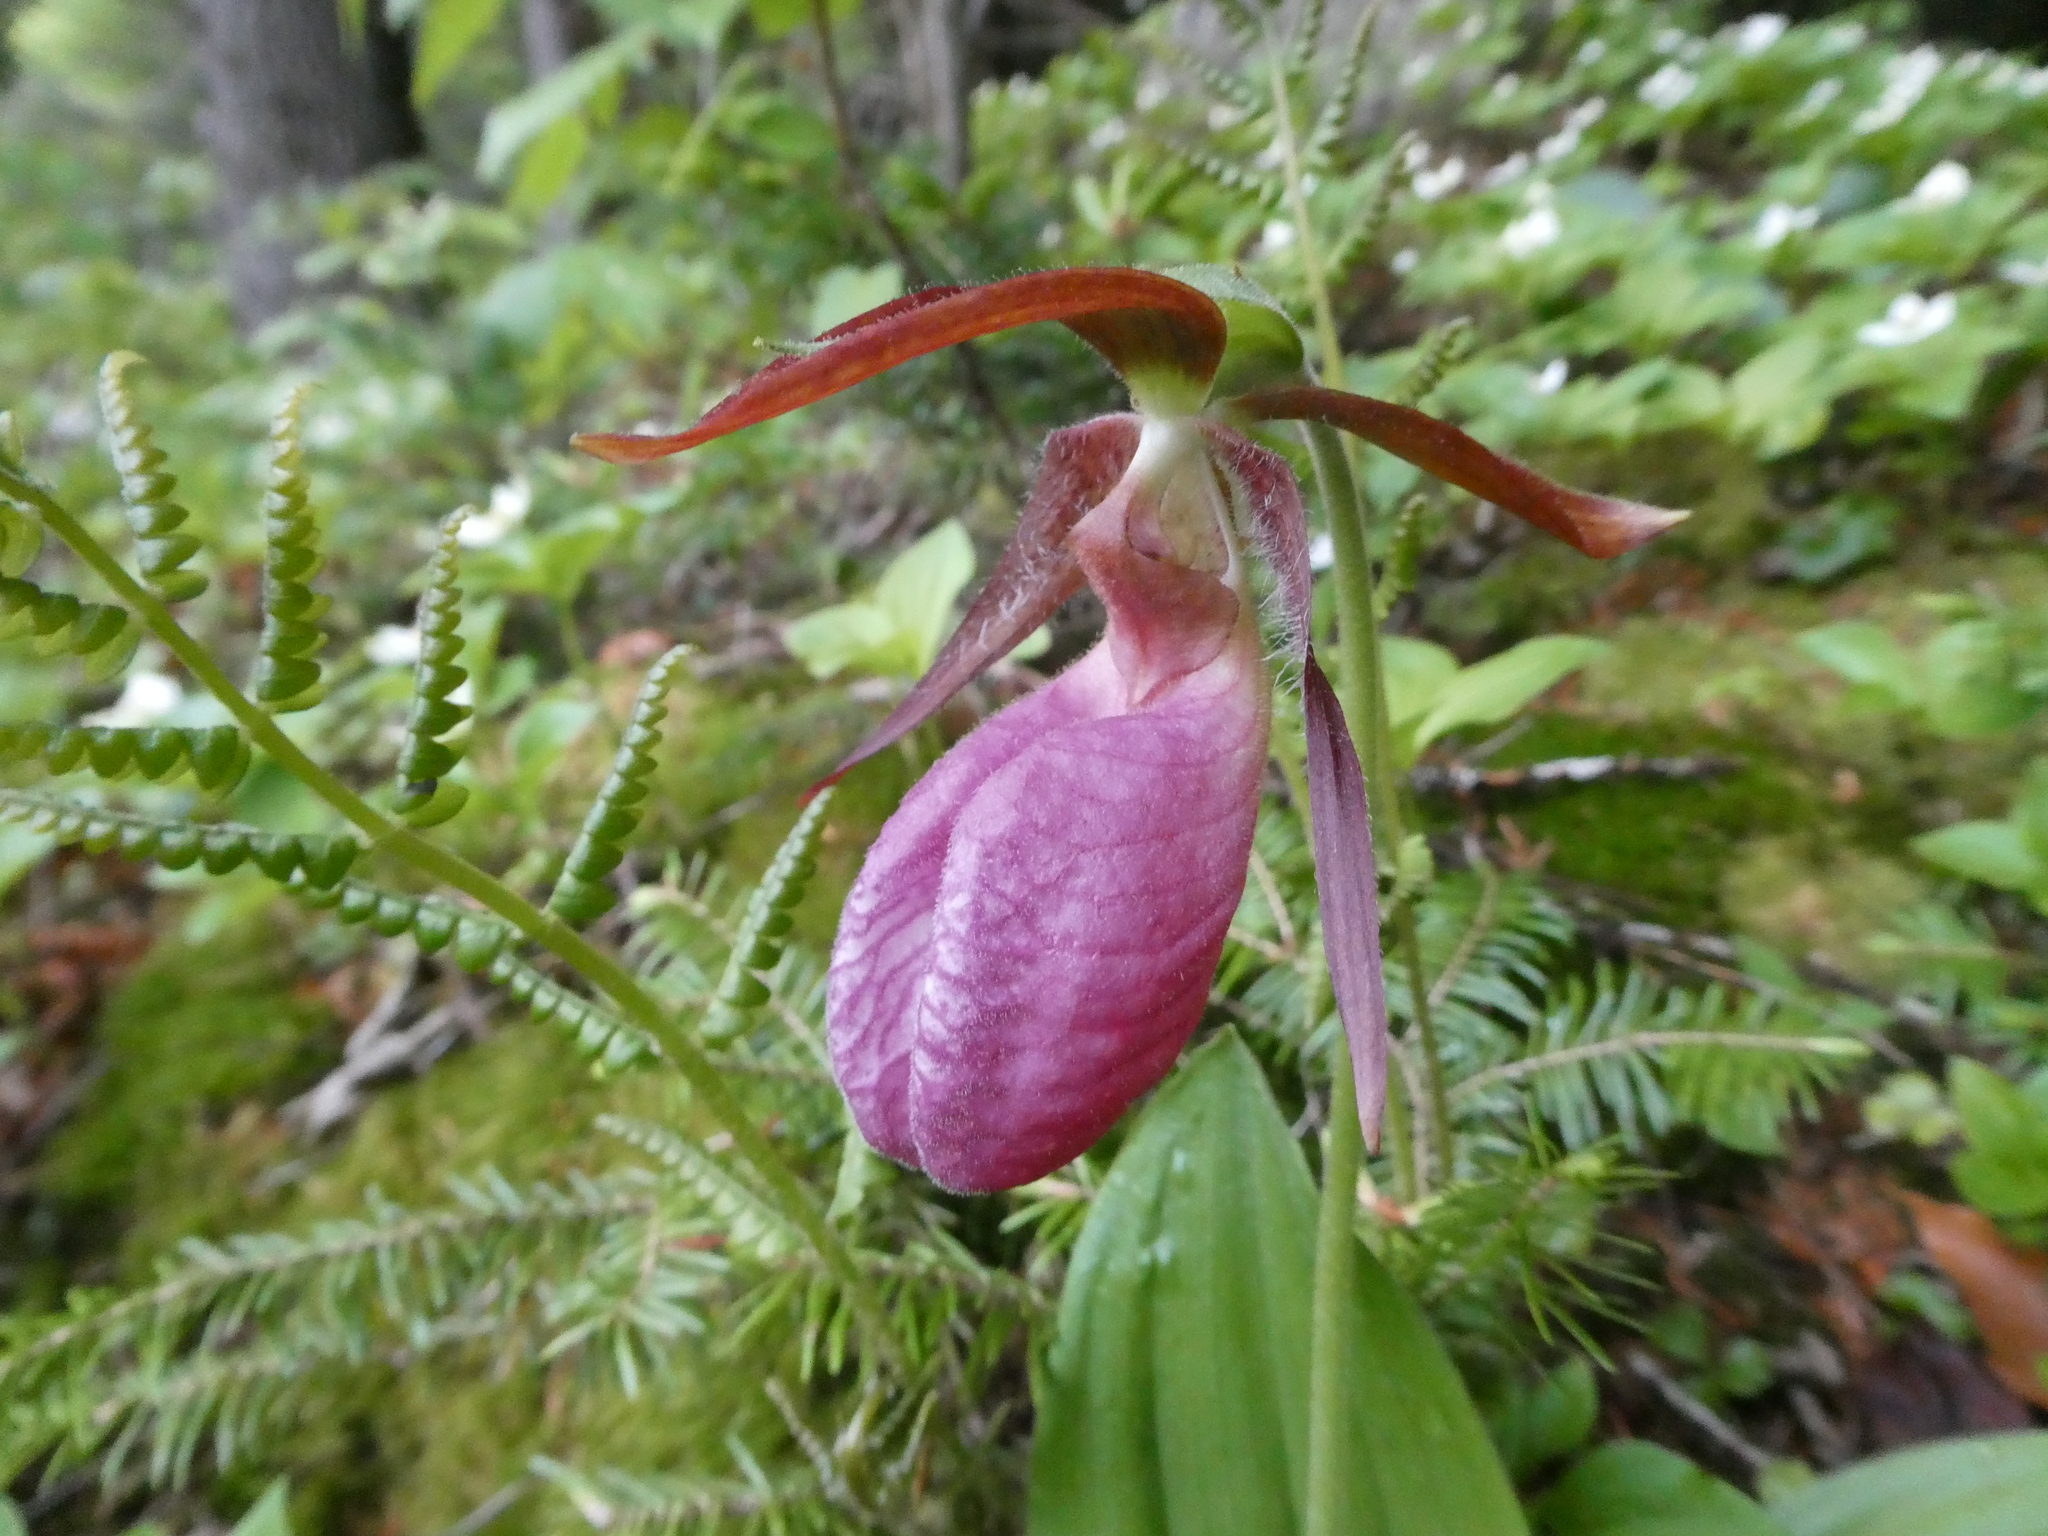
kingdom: Plantae
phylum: Tracheophyta
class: Liliopsida
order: Asparagales
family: Orchidaceae
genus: Cypripedium
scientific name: Cypripedium acaule
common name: Pink lady's-slipper
